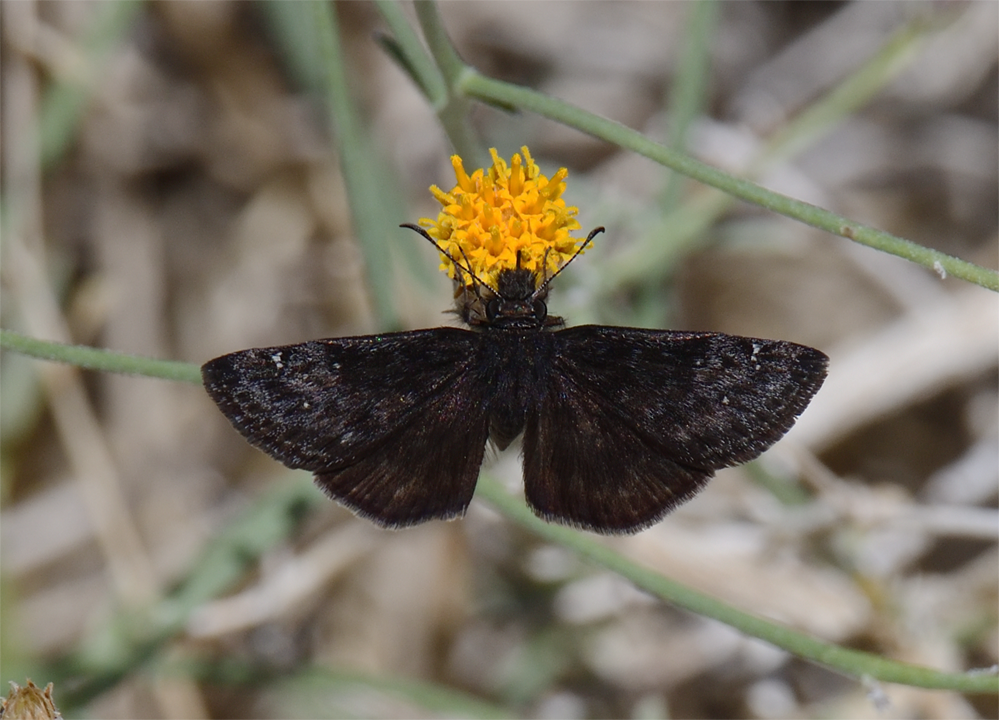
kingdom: Animalia
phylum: Arthropoda
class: Insecta
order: Lepidoptera
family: Hesperiidae
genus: Erynnis
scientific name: Erynnis afranius
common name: Afranius duskywing
